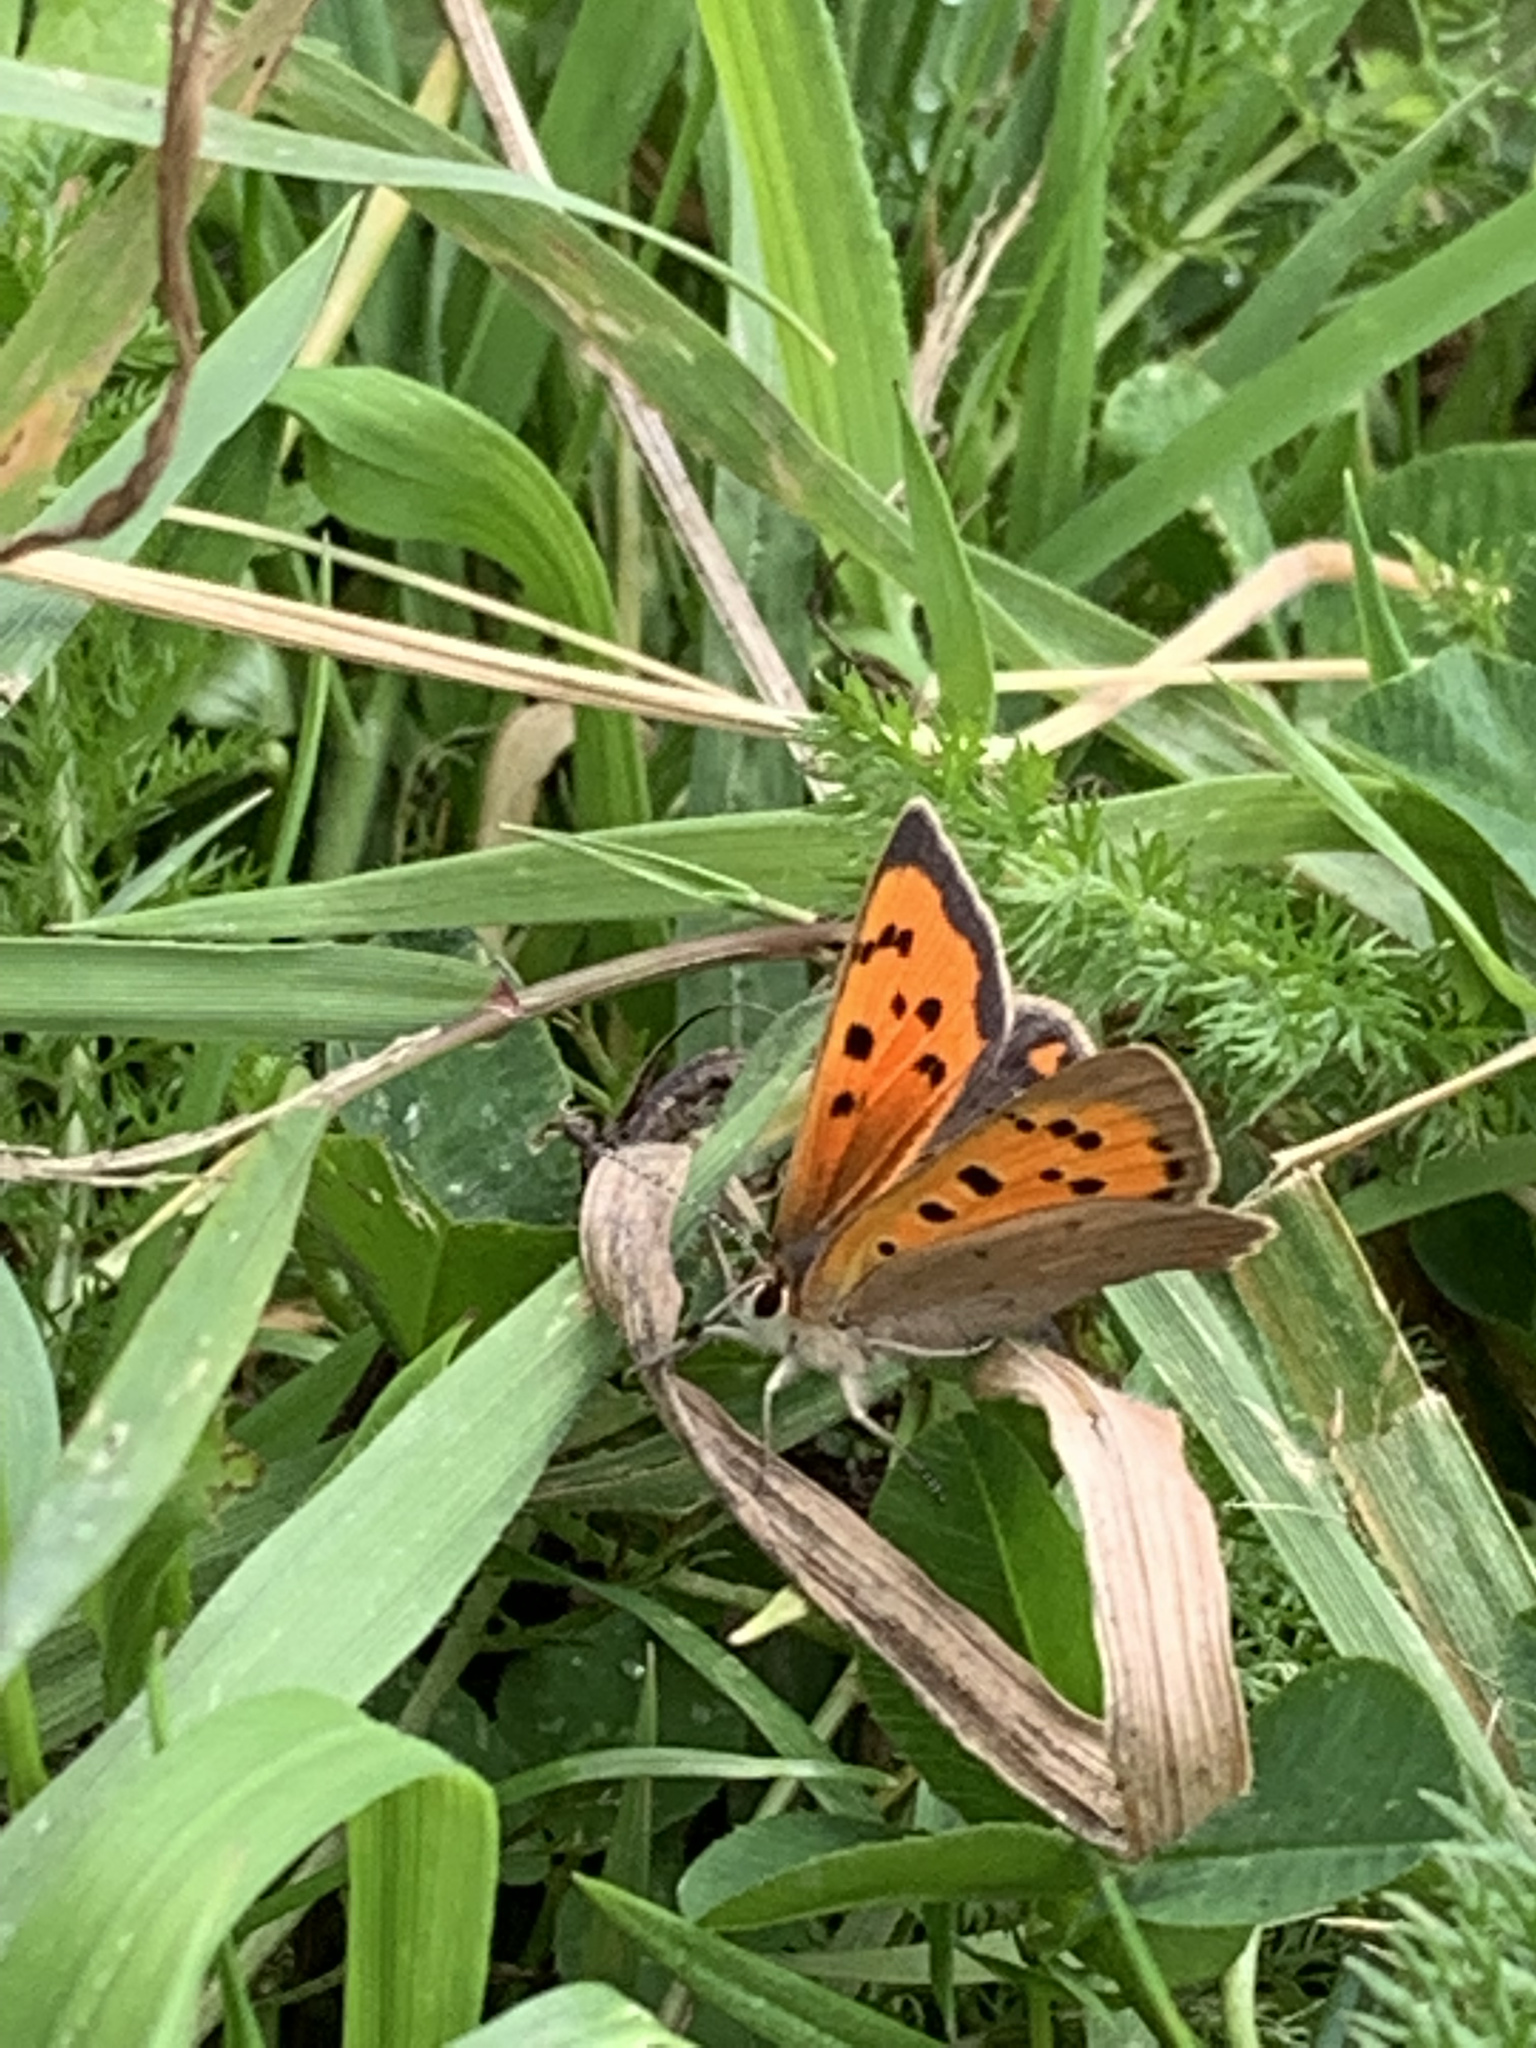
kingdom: Animalia
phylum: Arthropoda
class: Insecta
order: Lepidoptera
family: Lycaenidae
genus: Lycaena
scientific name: Lycaena phlaeas
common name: Small copper
